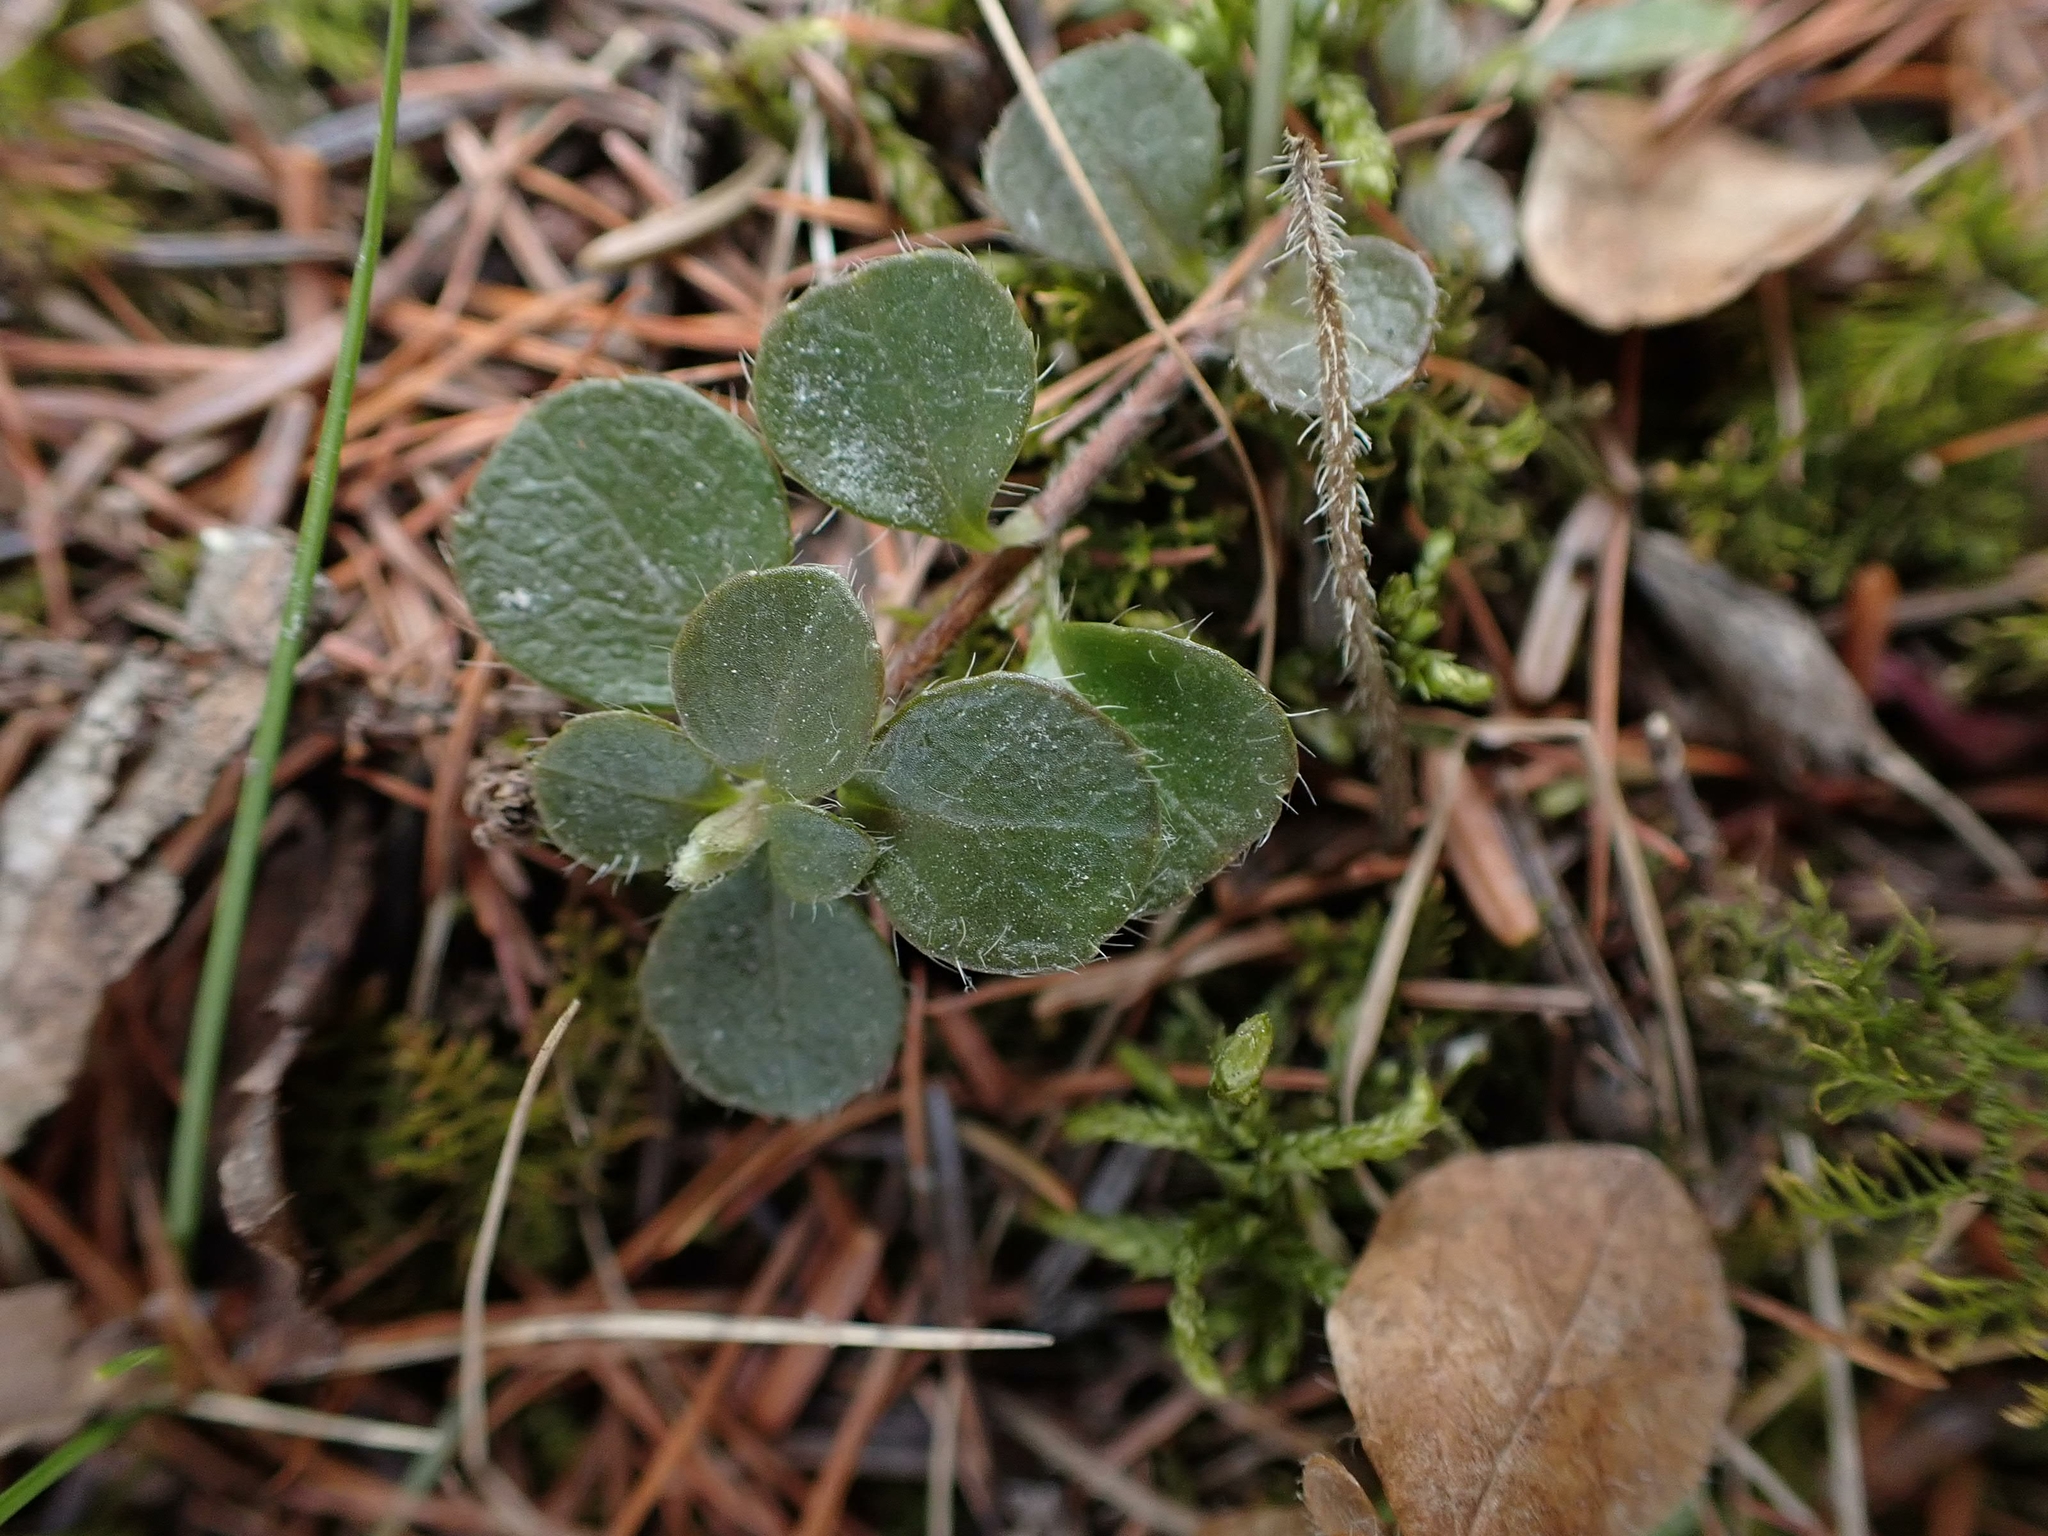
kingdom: Plantae
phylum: Tracheophyta
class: Magnoliopsida
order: Dipsacales
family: Caprifoliaceae
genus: Linnaea
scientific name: Linnaea borealis
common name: Twinflower
